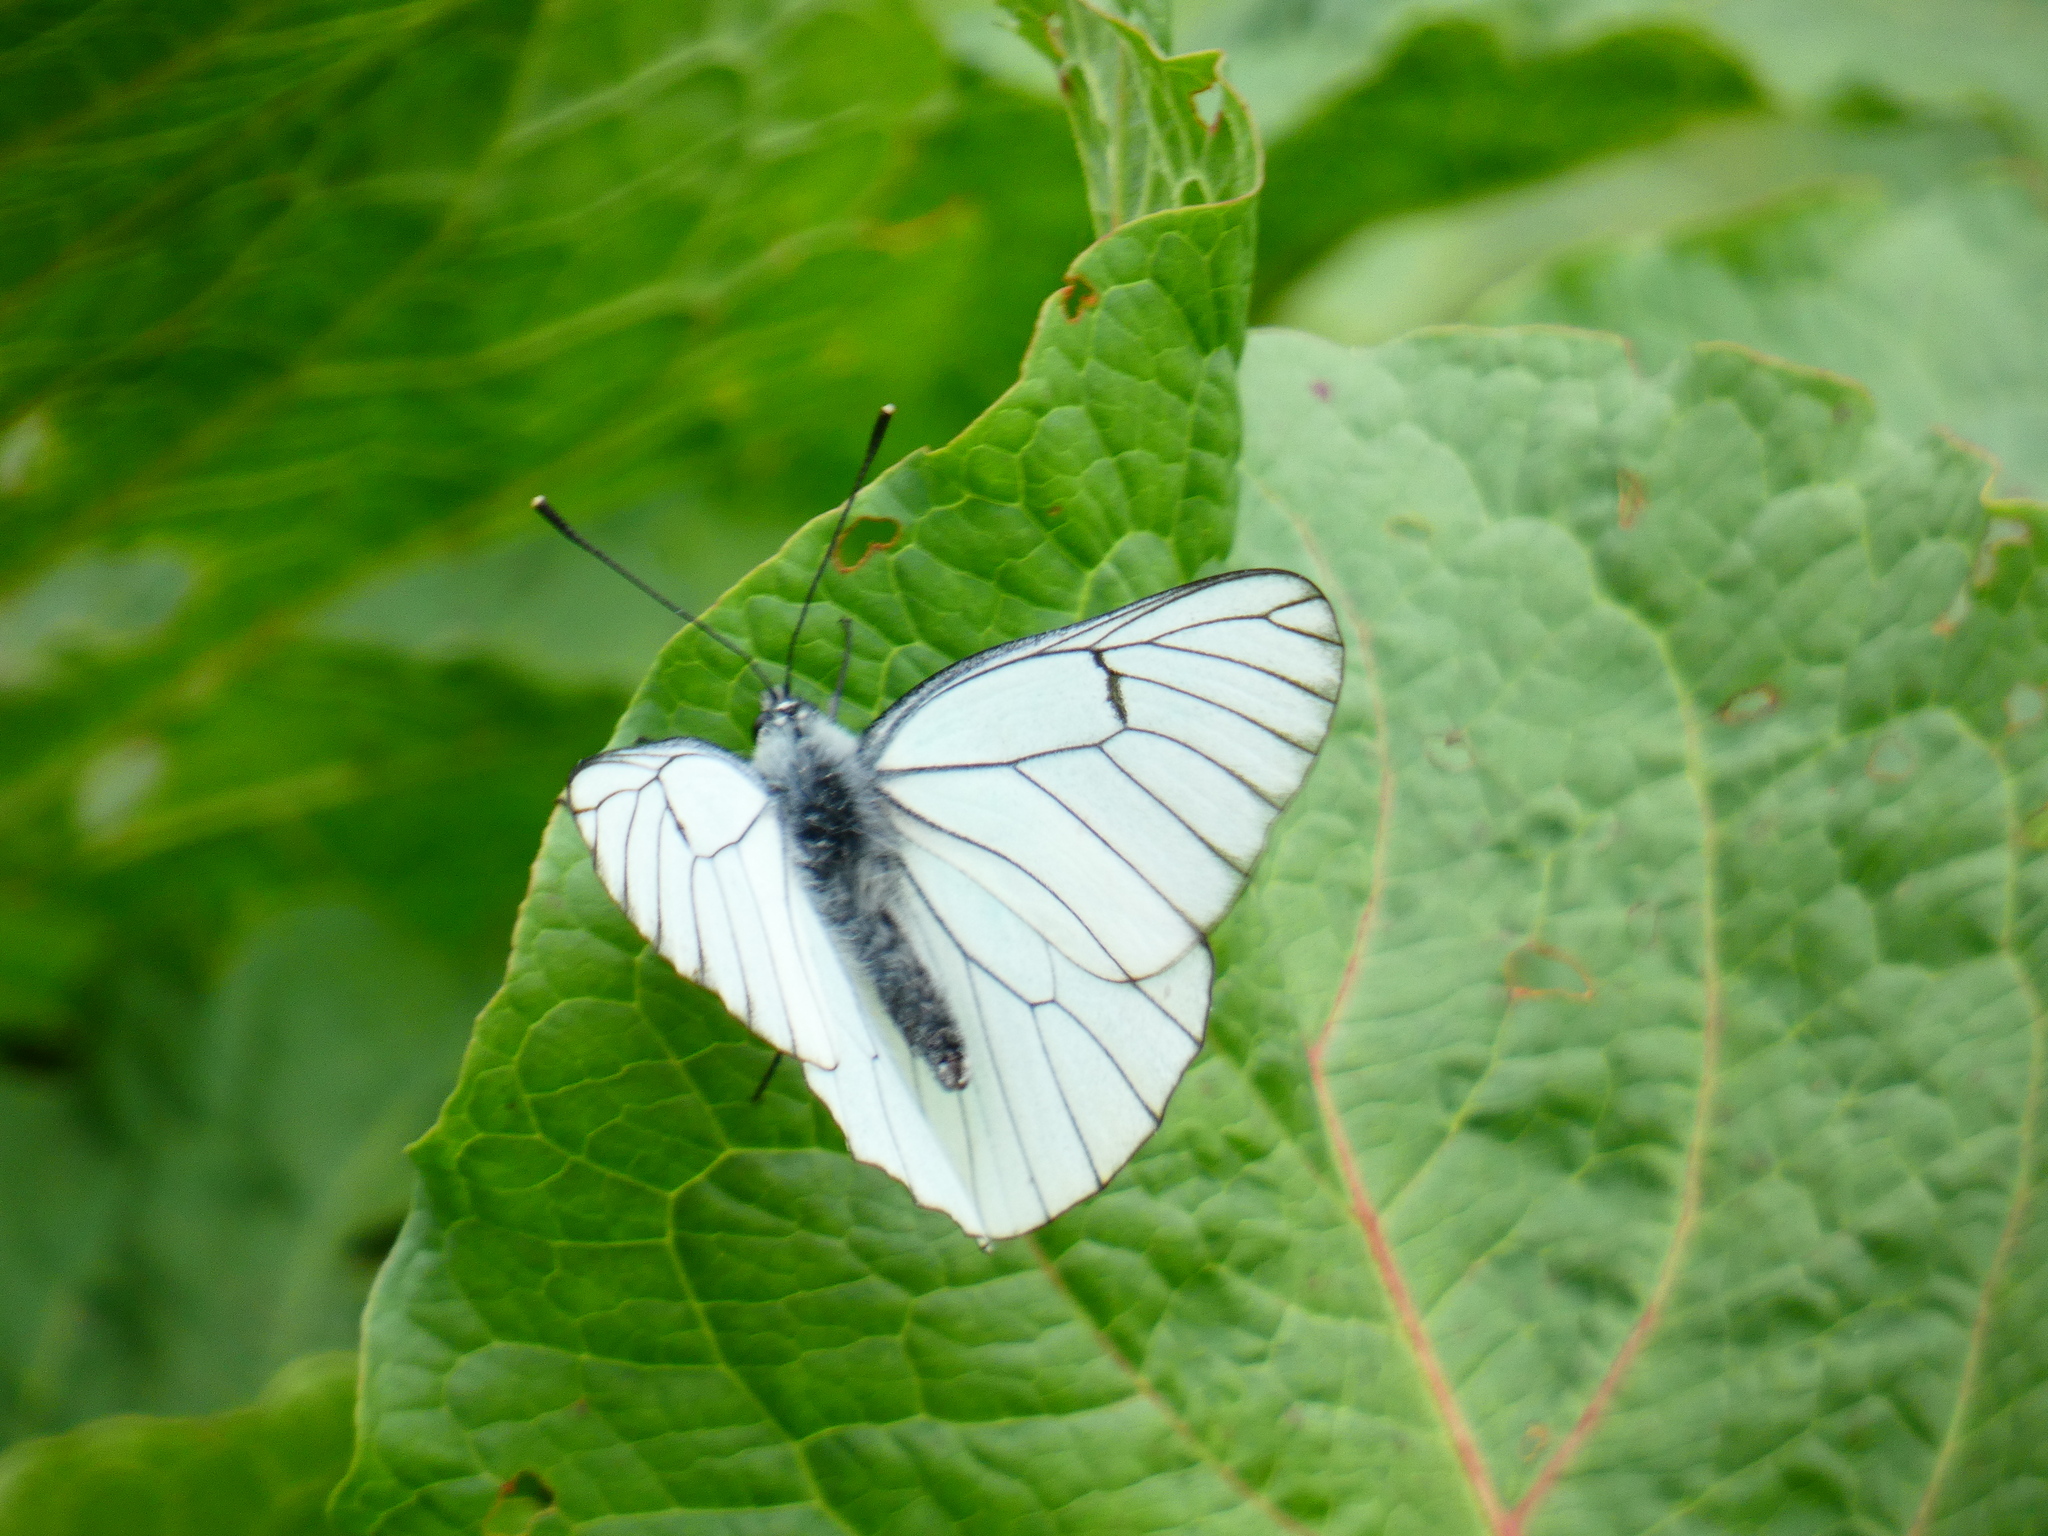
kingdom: Animalia
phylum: Arthropoda
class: Insecta
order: Lepidoptera
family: Pieridae
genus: Aporia
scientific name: Aporia crataegi
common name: Black-veined white
